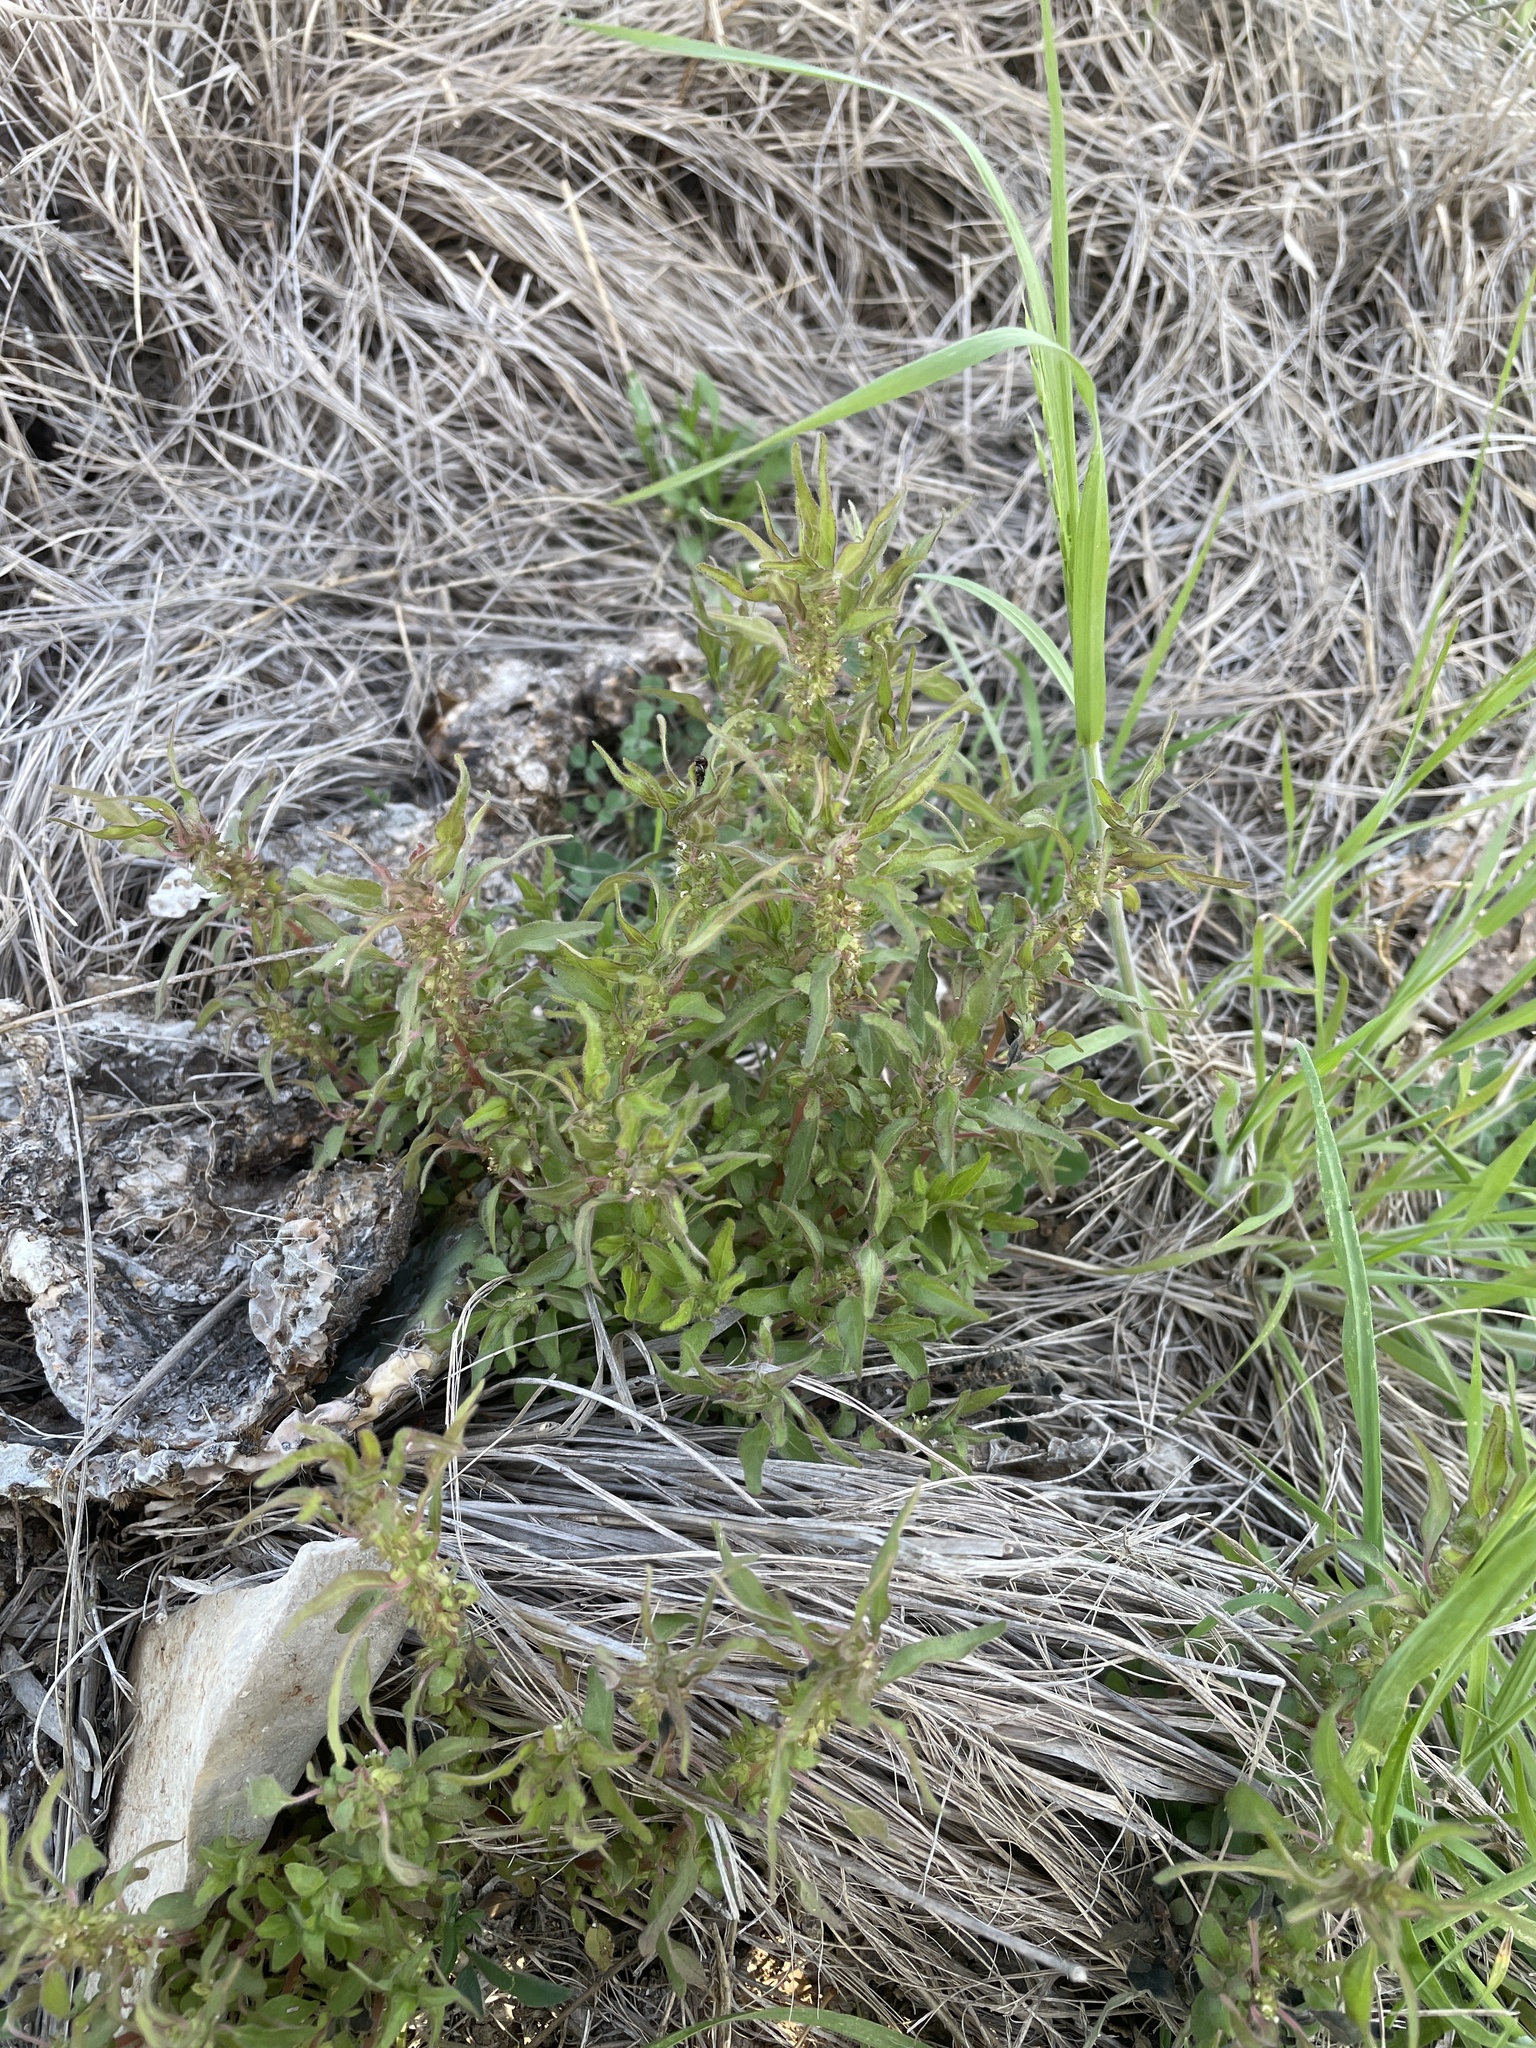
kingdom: Plantae
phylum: Tracheophyta
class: Magnoliopsida
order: Rosales
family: Urticaceae
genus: Parietaria
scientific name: Parietaria pensylvanica
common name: Pennsylvania pellitory
